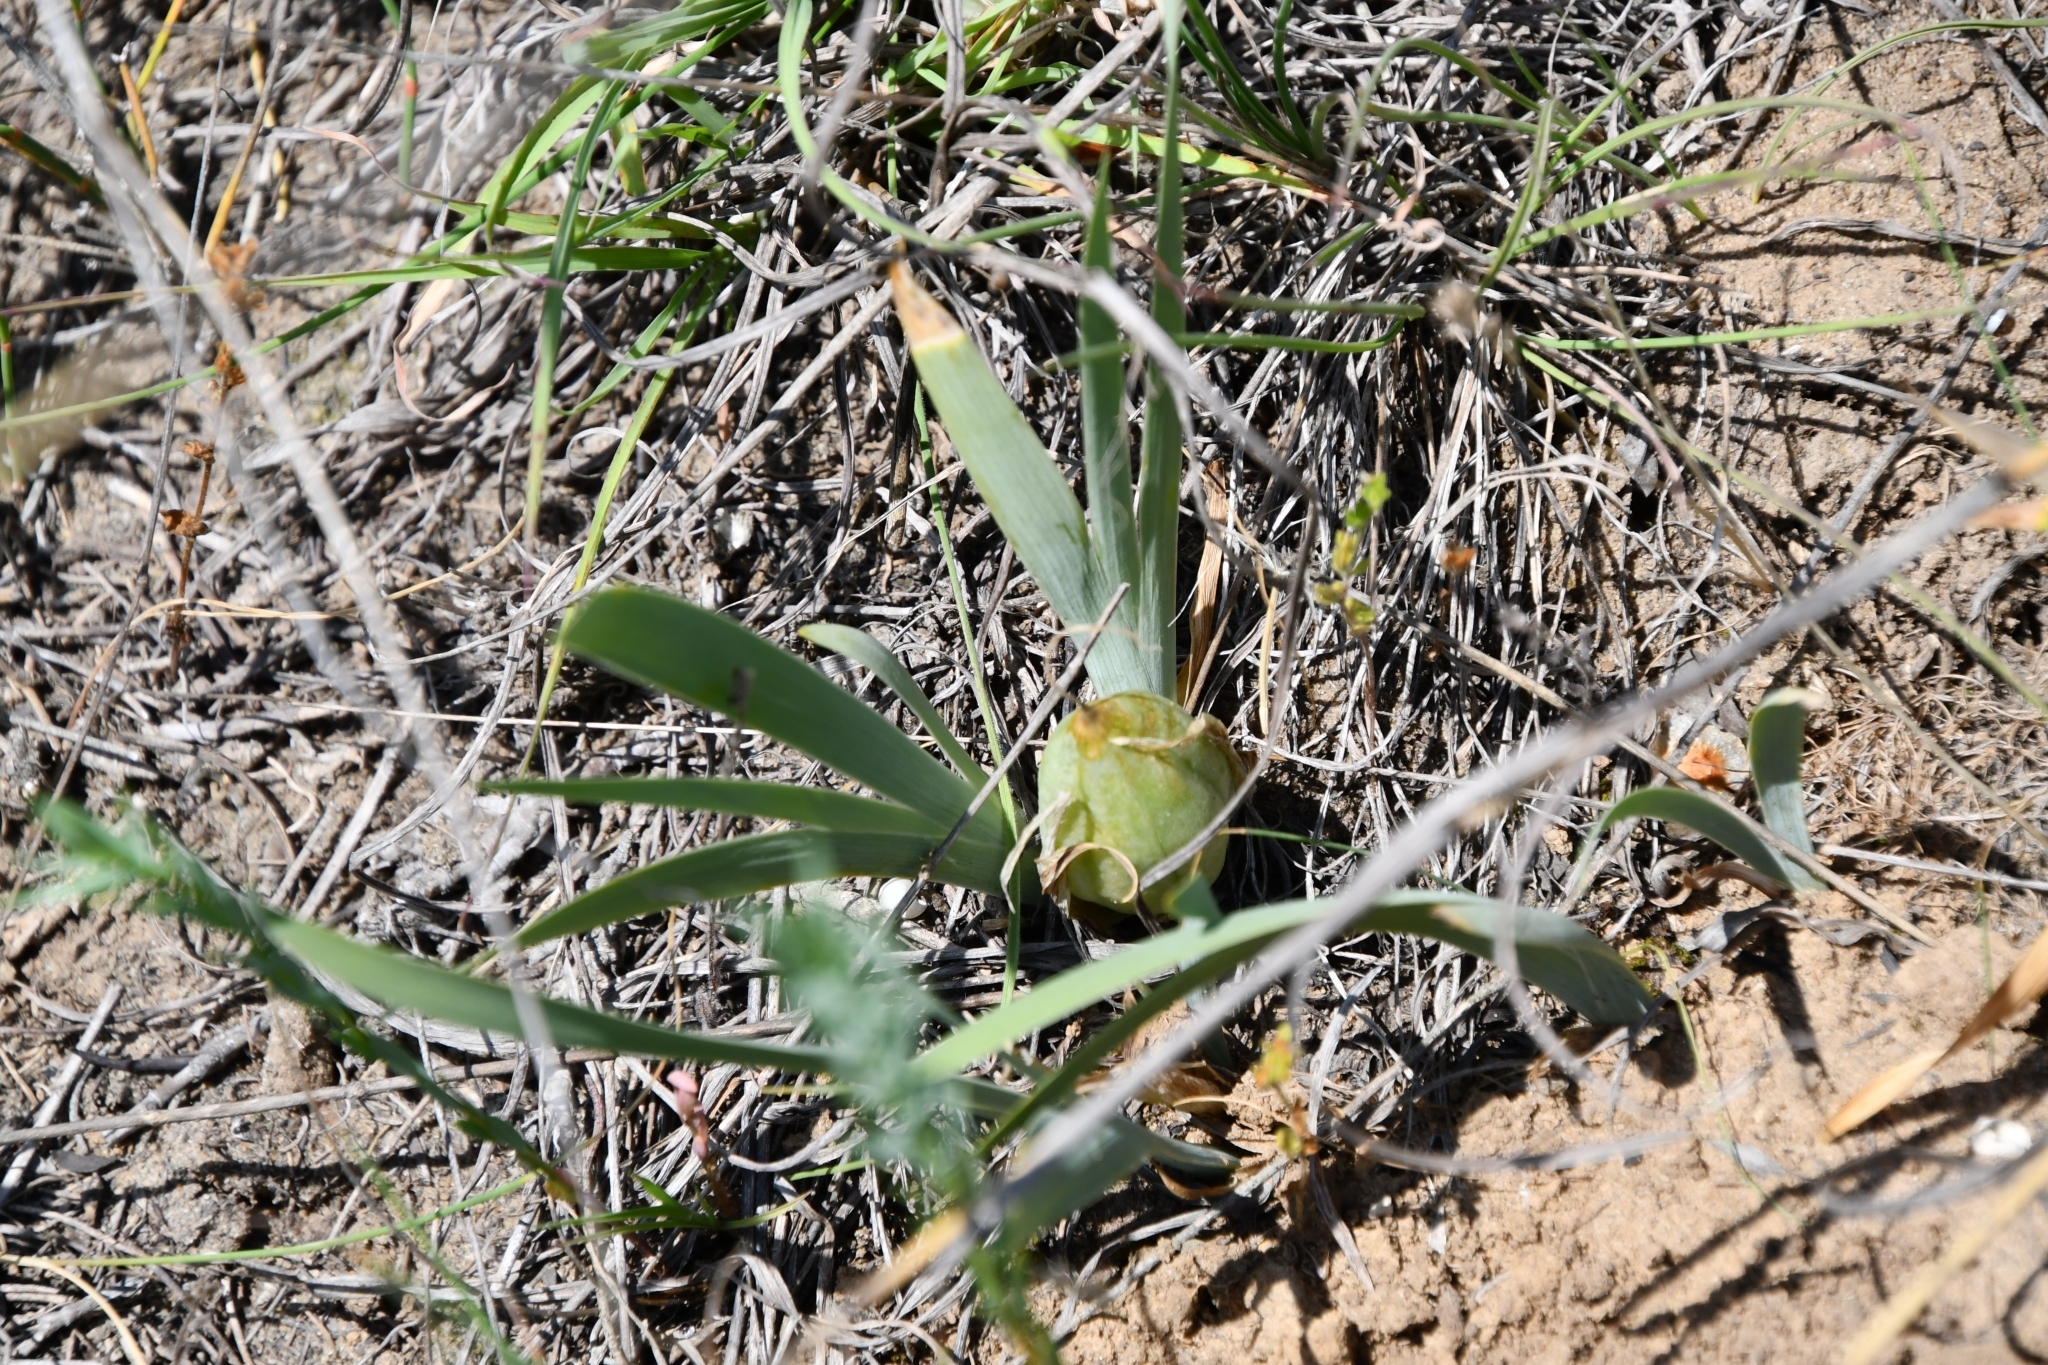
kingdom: Plantae
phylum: Tracheophyta
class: Liliopsida
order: Asparagales
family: Iridaceae
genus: Iris
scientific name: Iris pumila
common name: Dwarf iris
